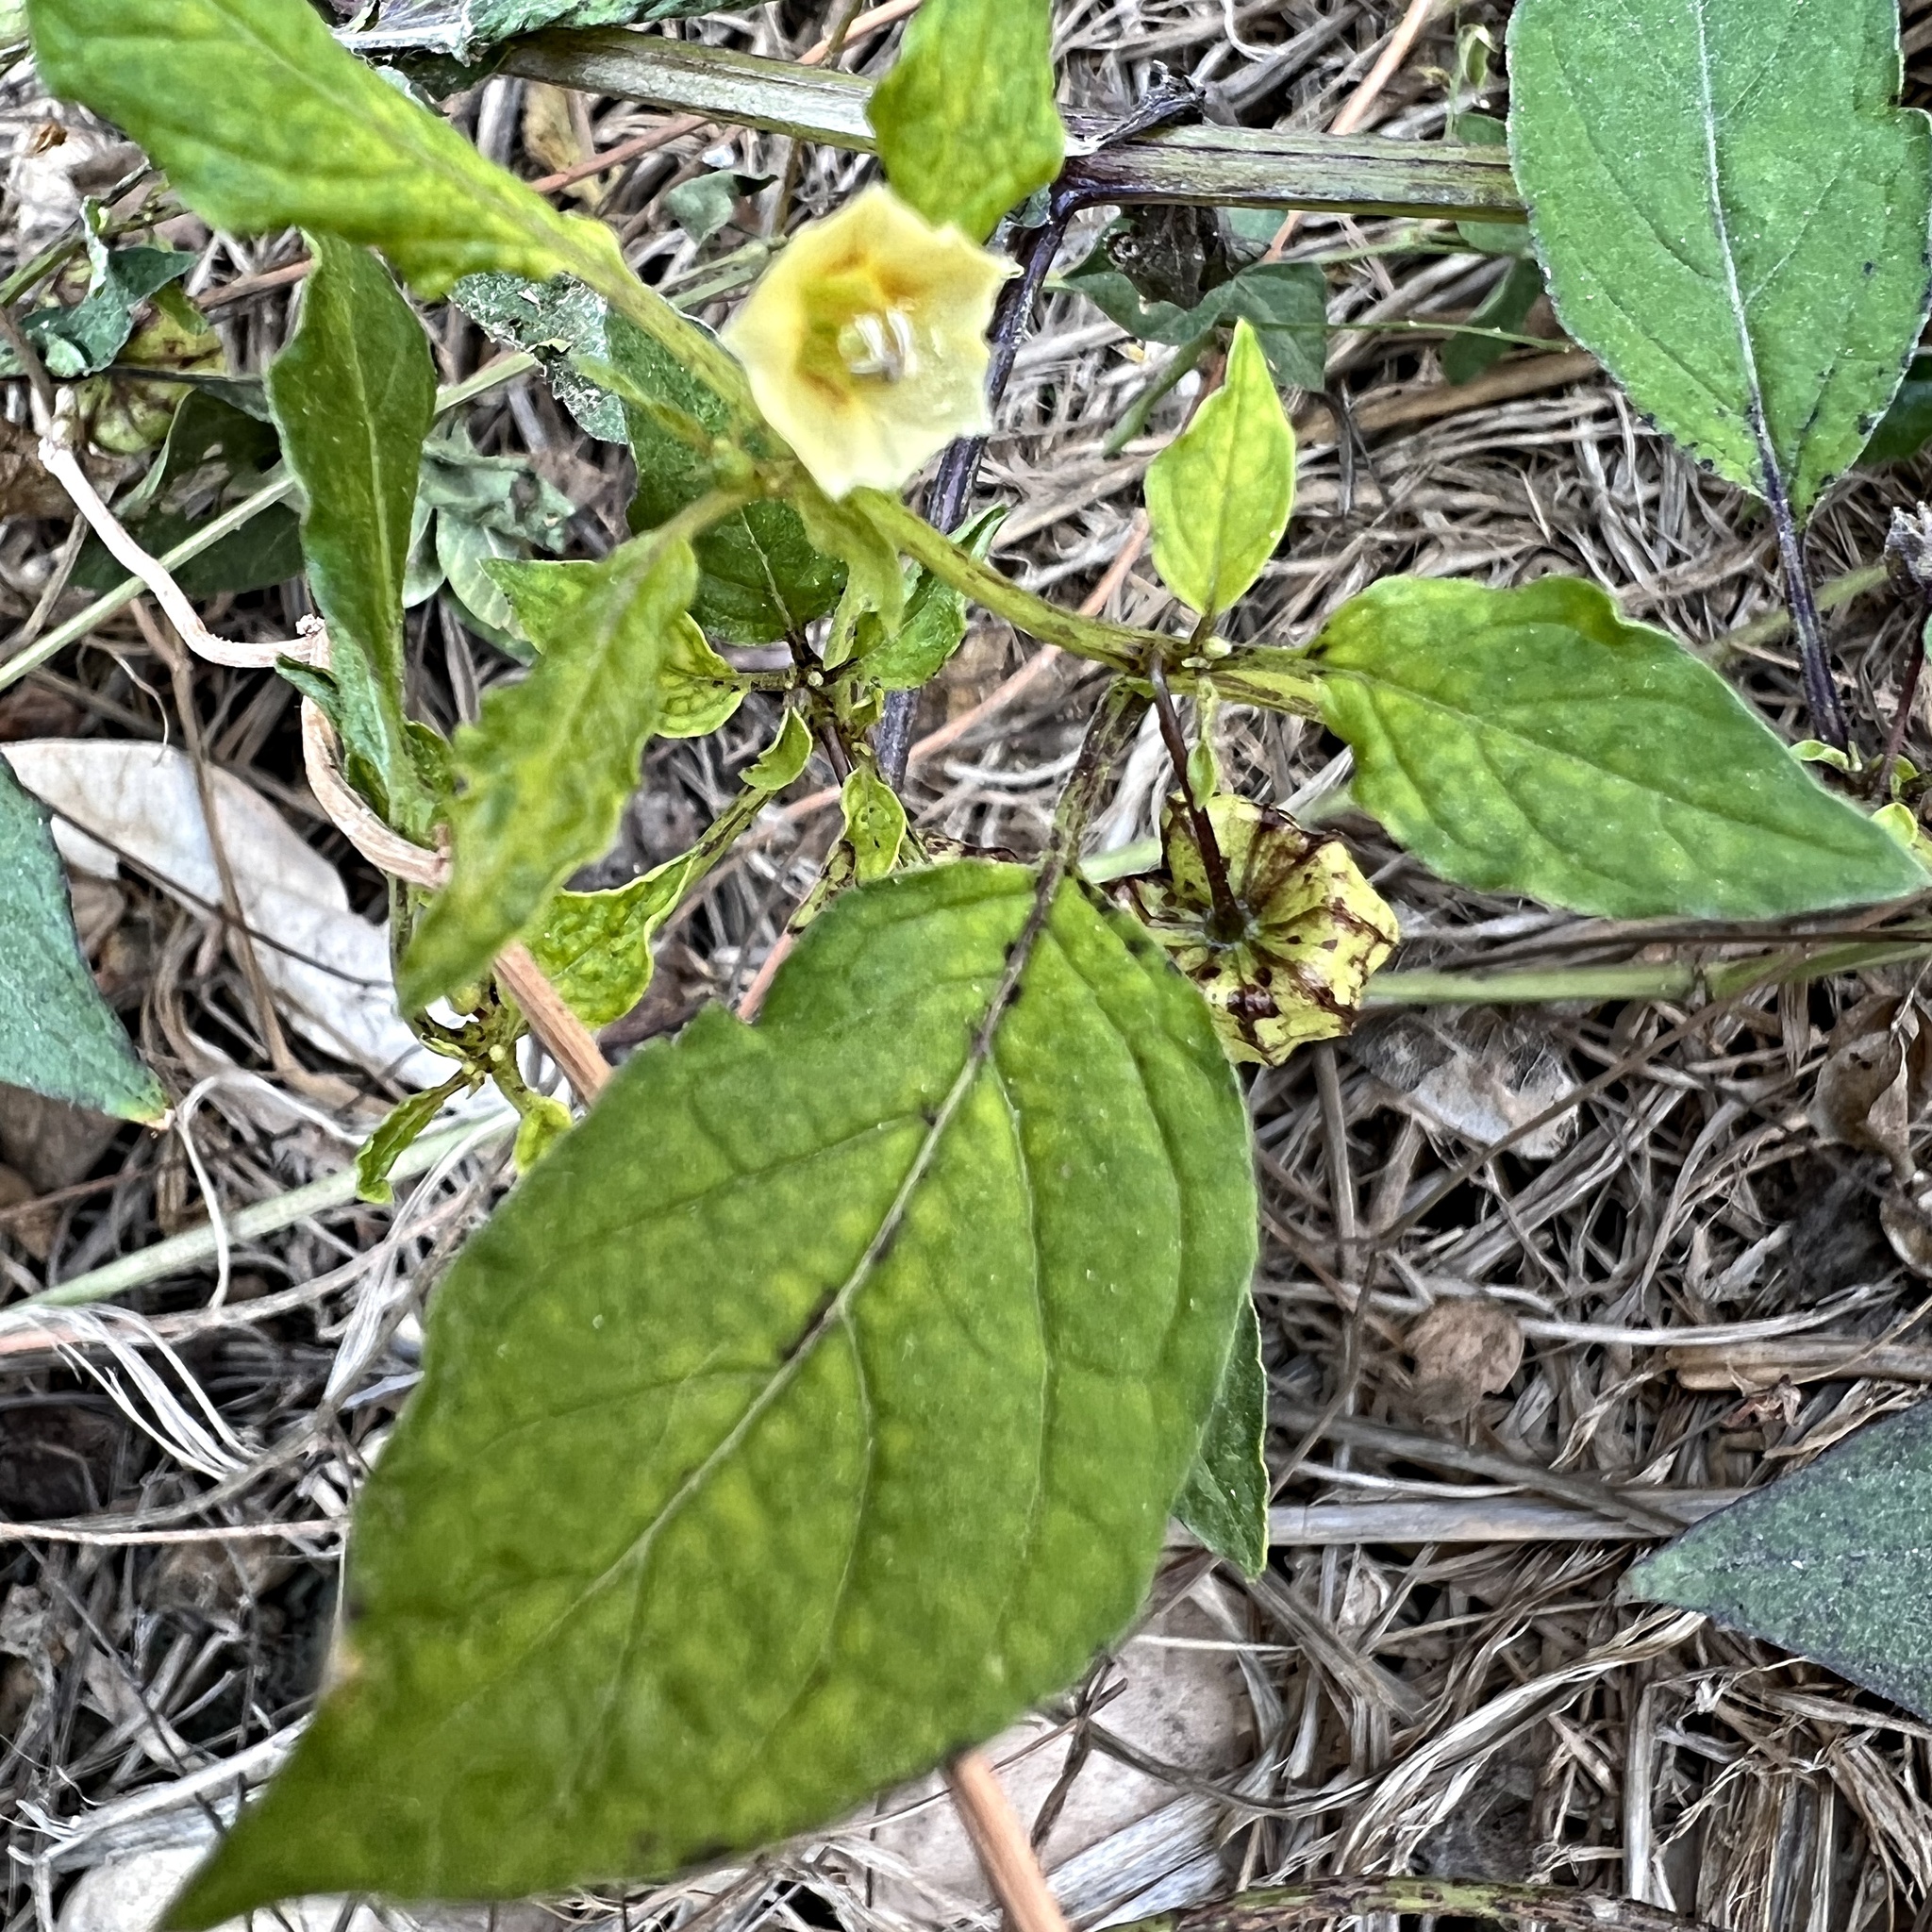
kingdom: Plantae
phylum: Tracheophyta
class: Magnoliopsida
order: Solanales
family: Solanaceae
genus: Physalis
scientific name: Physalis angulata
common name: Angular winter-cherry
